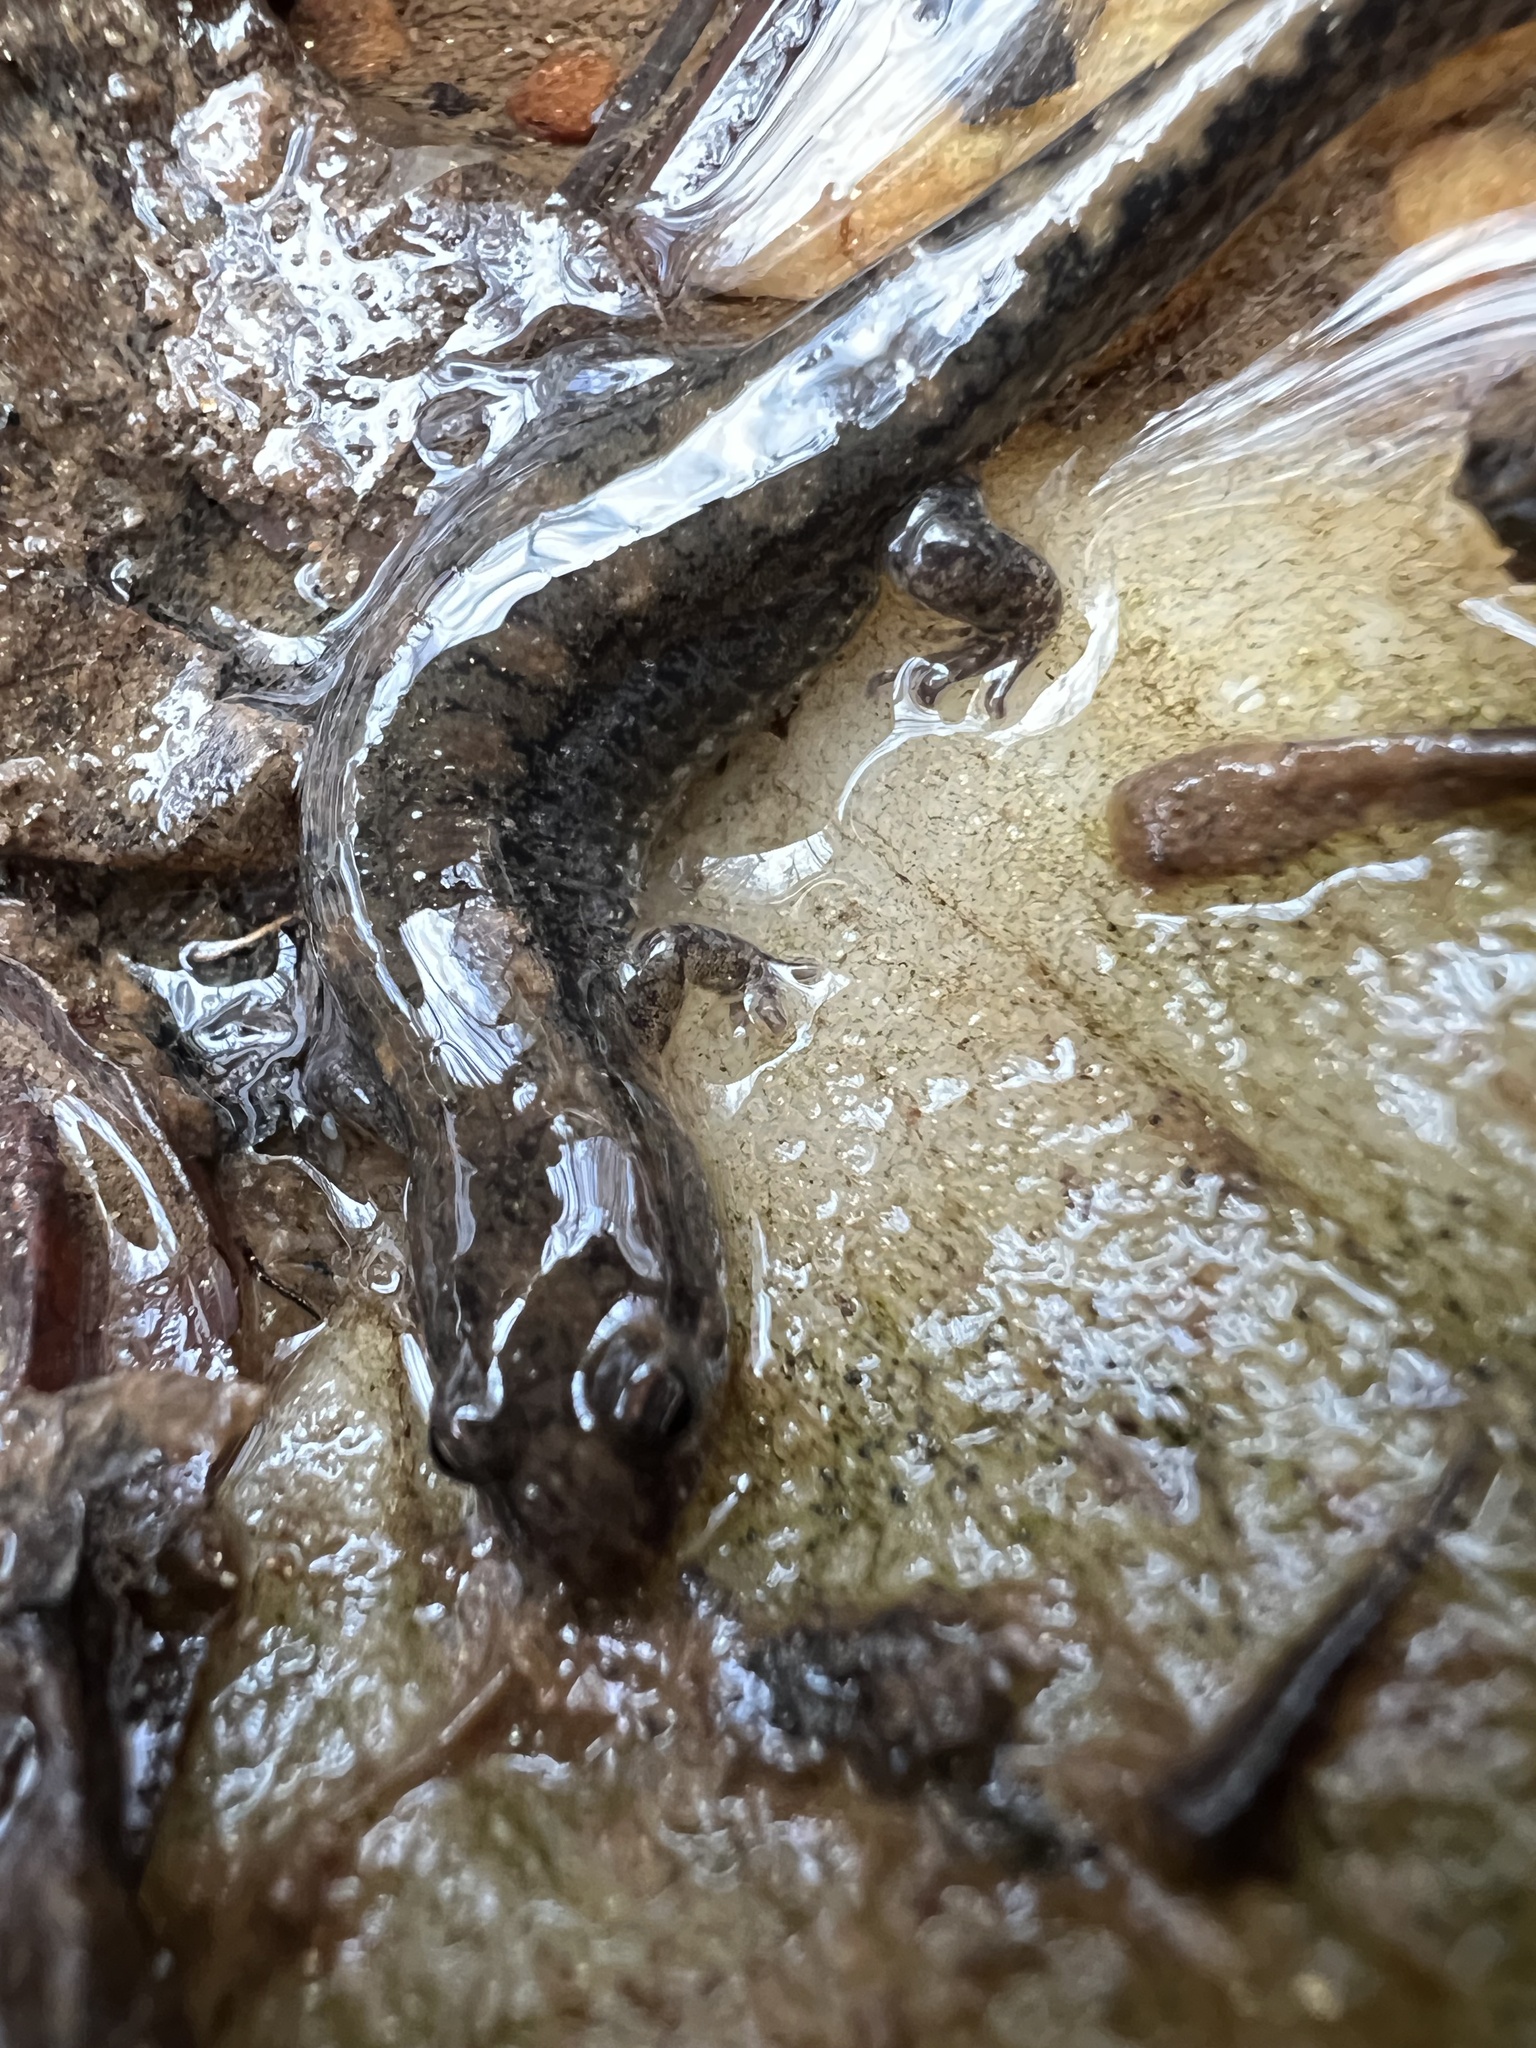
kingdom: Animalia
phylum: Chordata
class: Amphibia
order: Caudata
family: Plethodontidae
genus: Desmognathus
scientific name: Desmognathus
